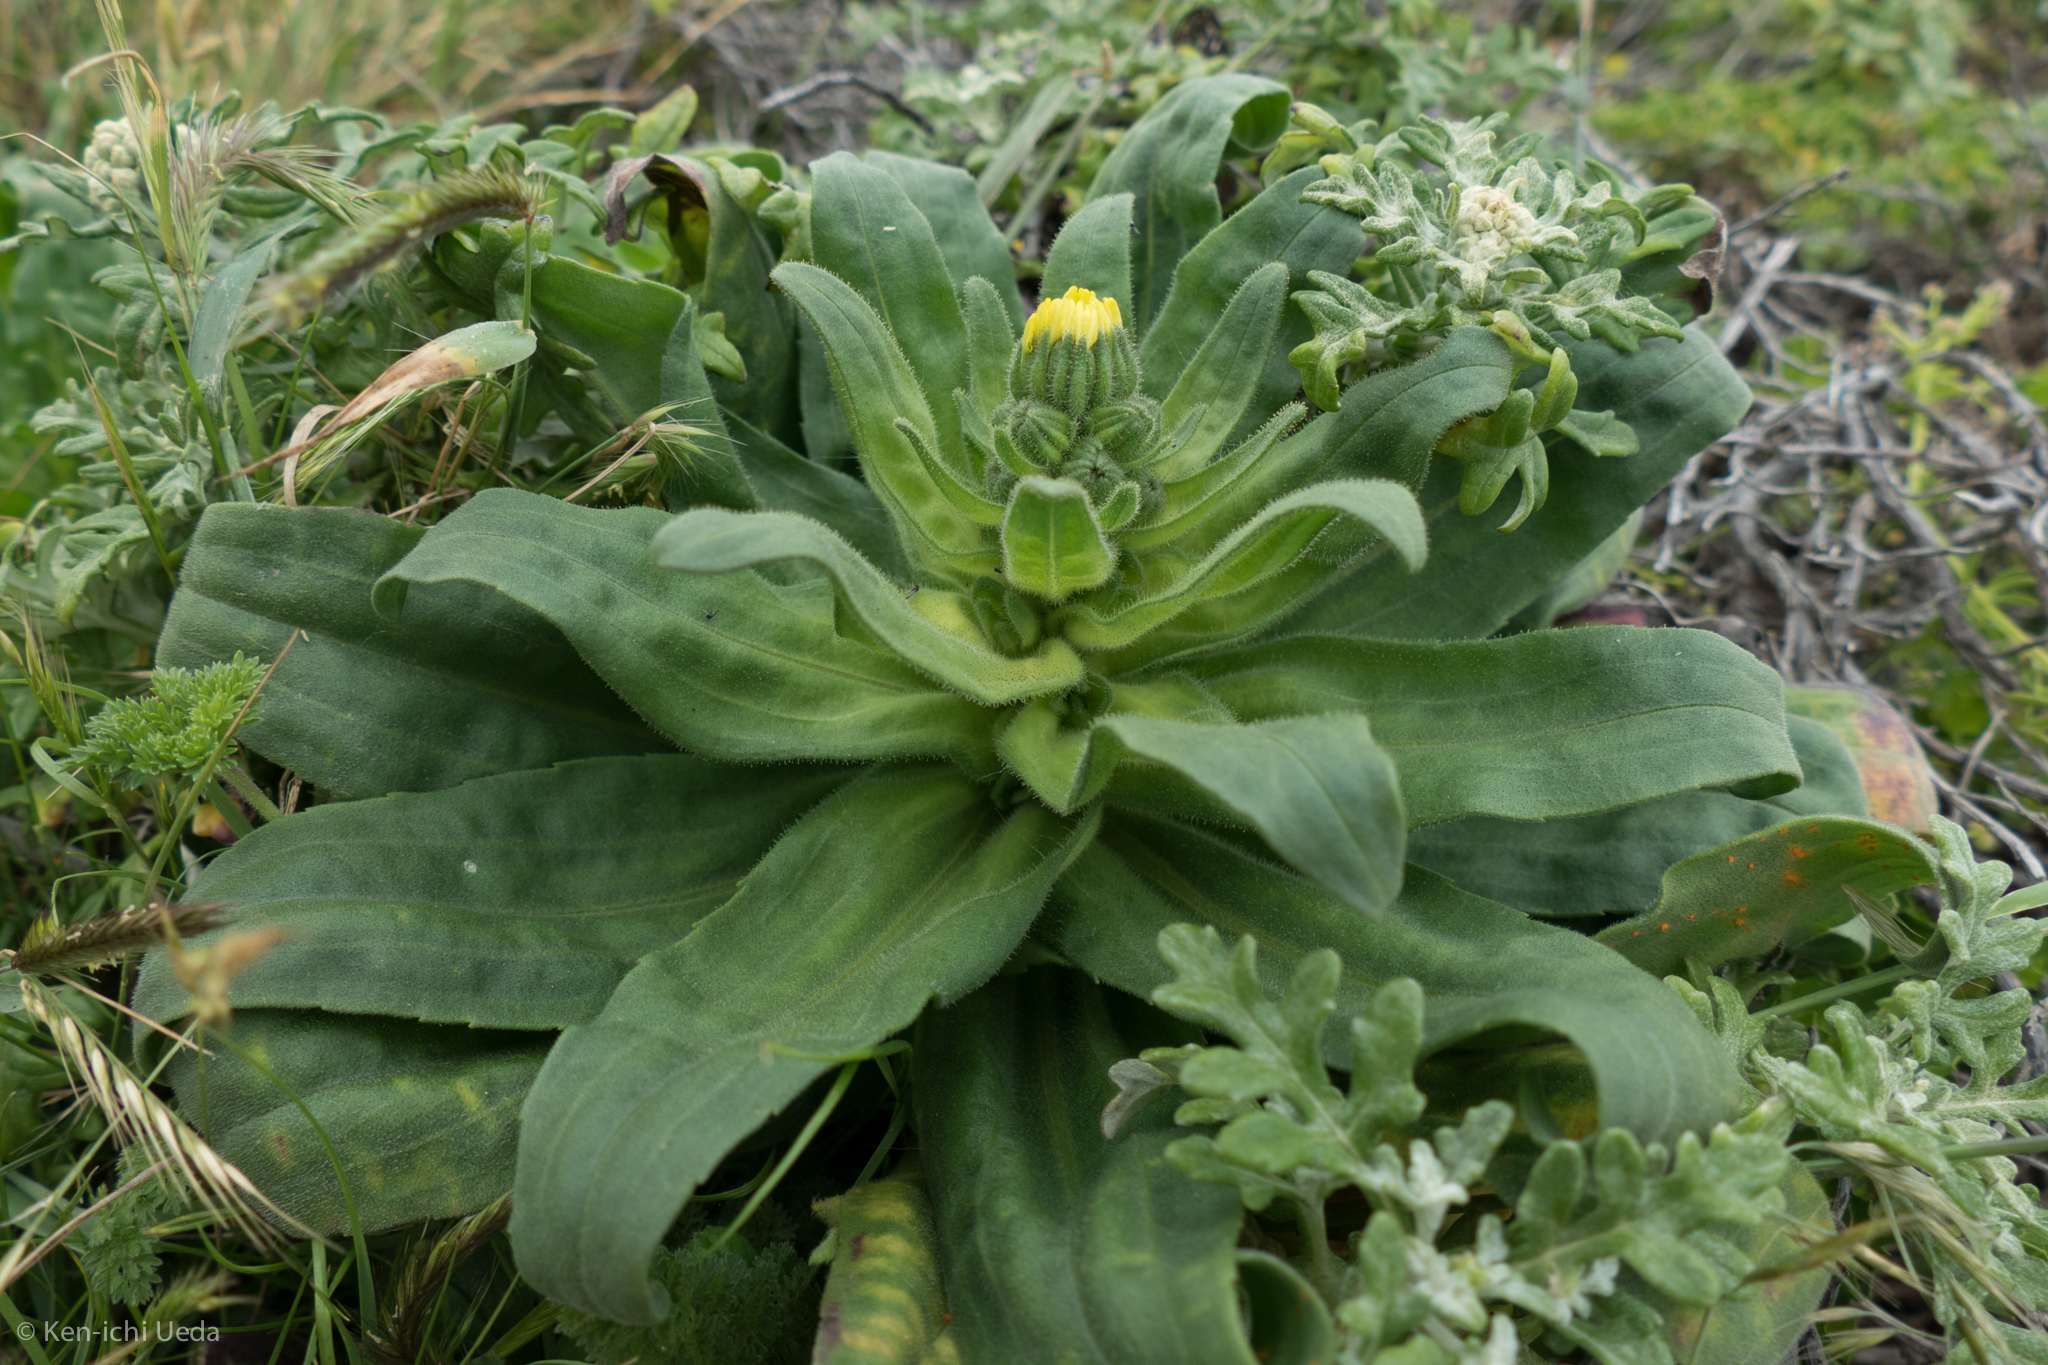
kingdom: Plantae
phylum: Tracheophyta
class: Magnoliopsida
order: Asterales
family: Asteraceae
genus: Madia
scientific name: Madia sativa
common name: Coast tarweed
